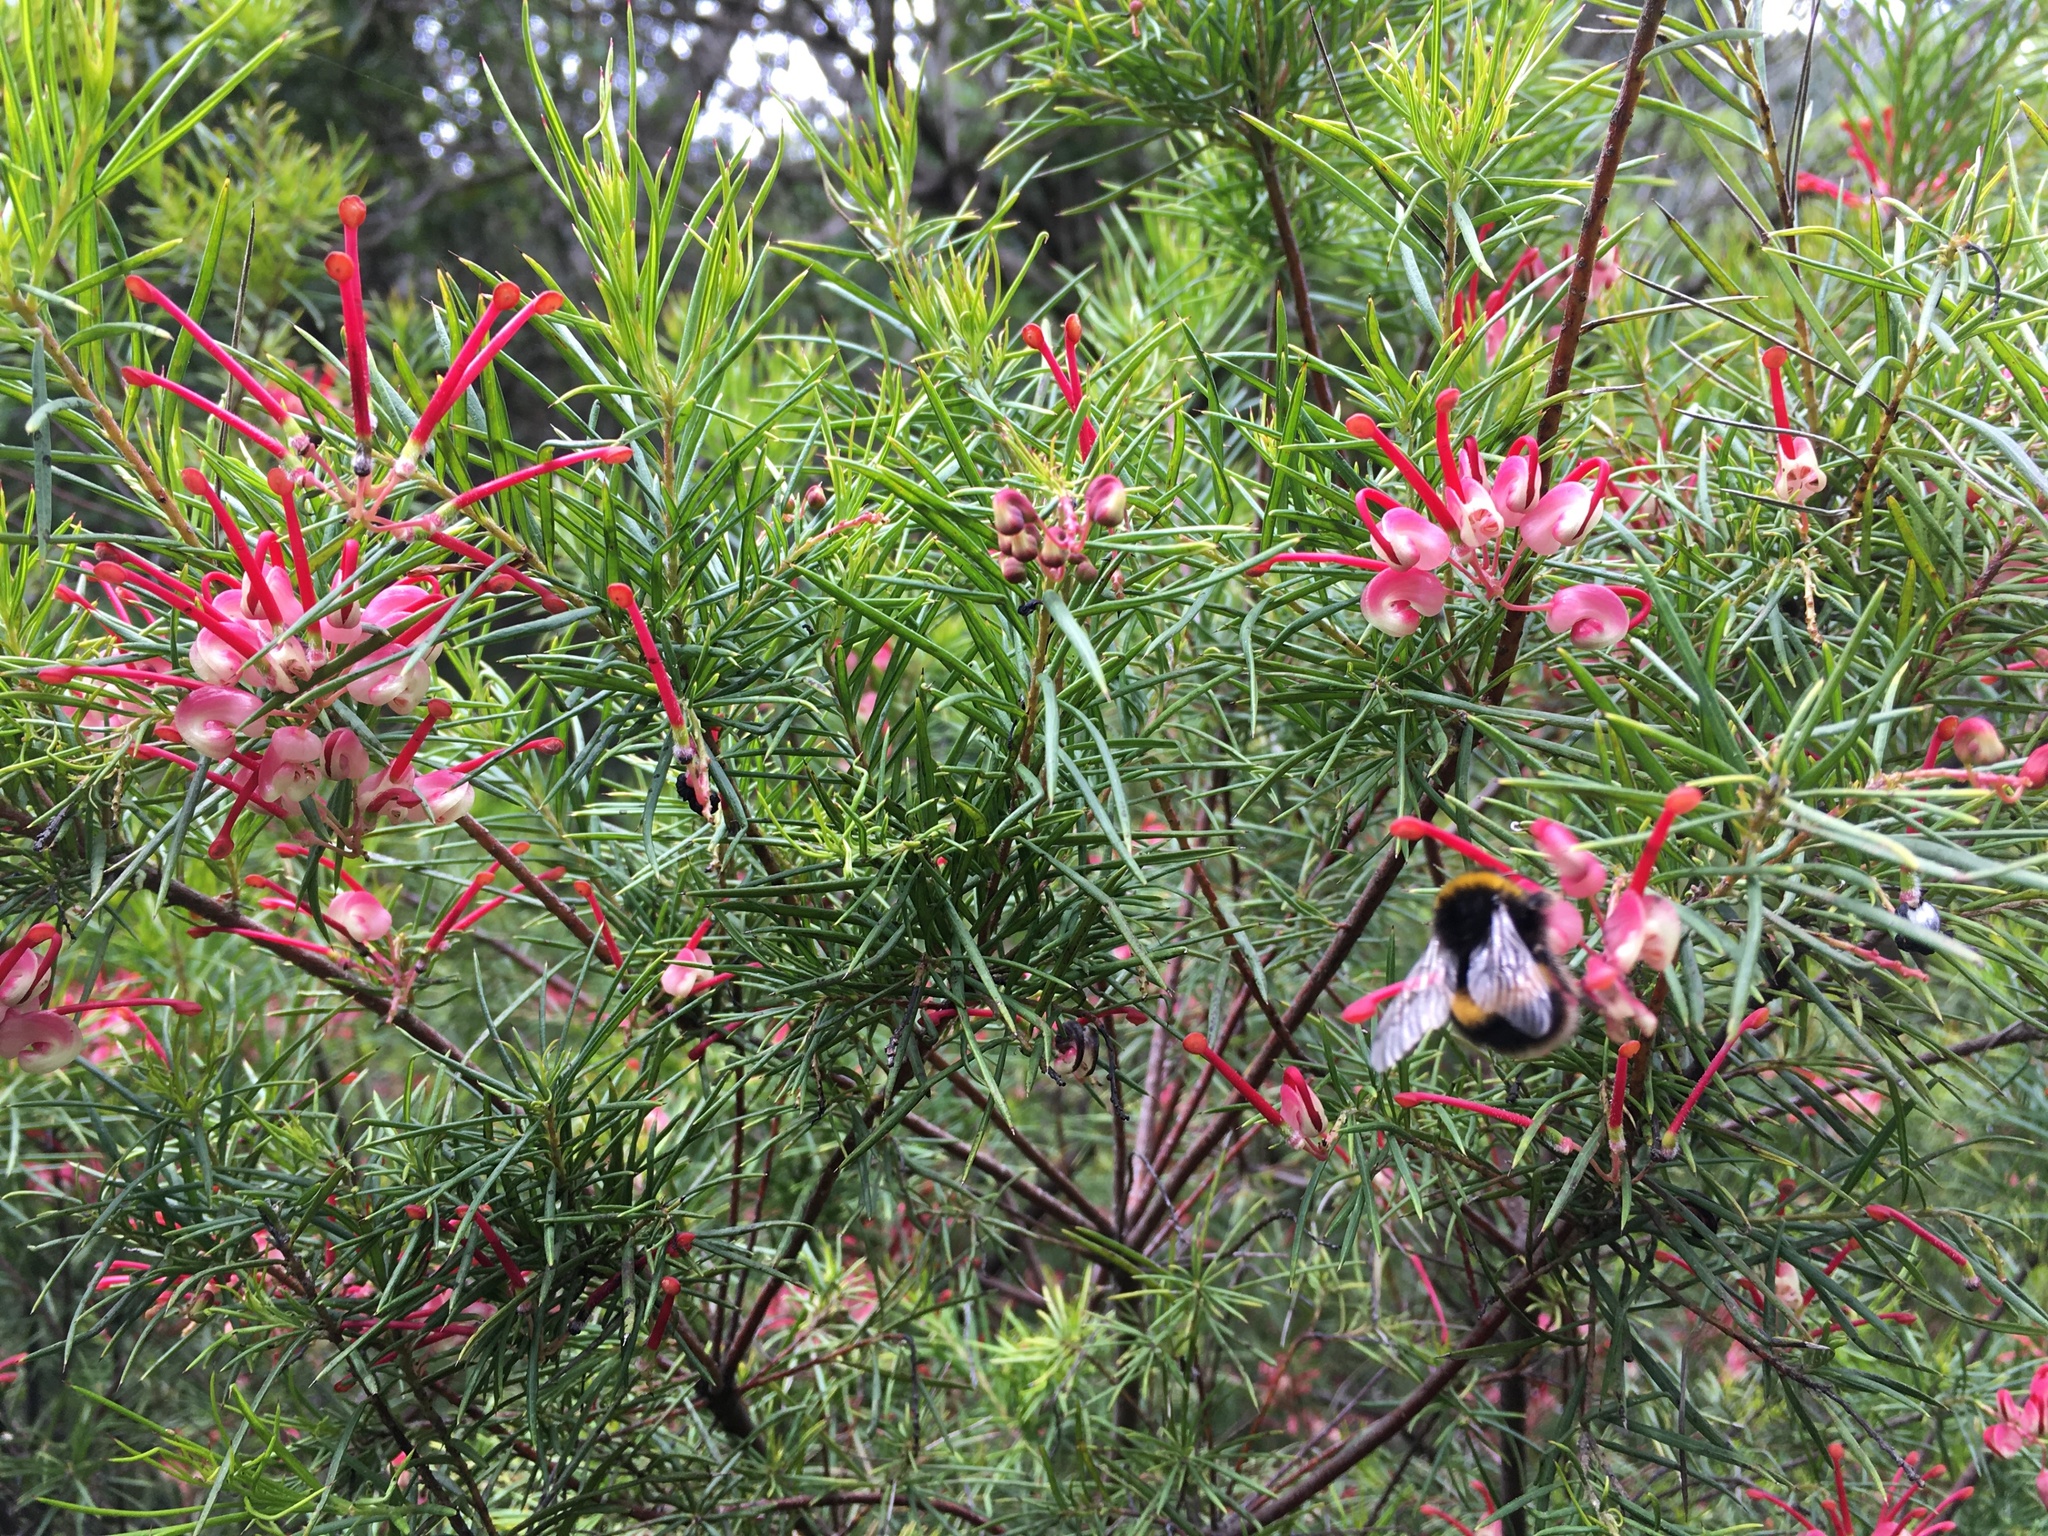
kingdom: Plantae
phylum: Tracheophyta
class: Magnoliopsida
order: Proteales
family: Proteaceae
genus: Grevillea
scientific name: Grevillea rosmarinifolia
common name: Rosemary grevillea
